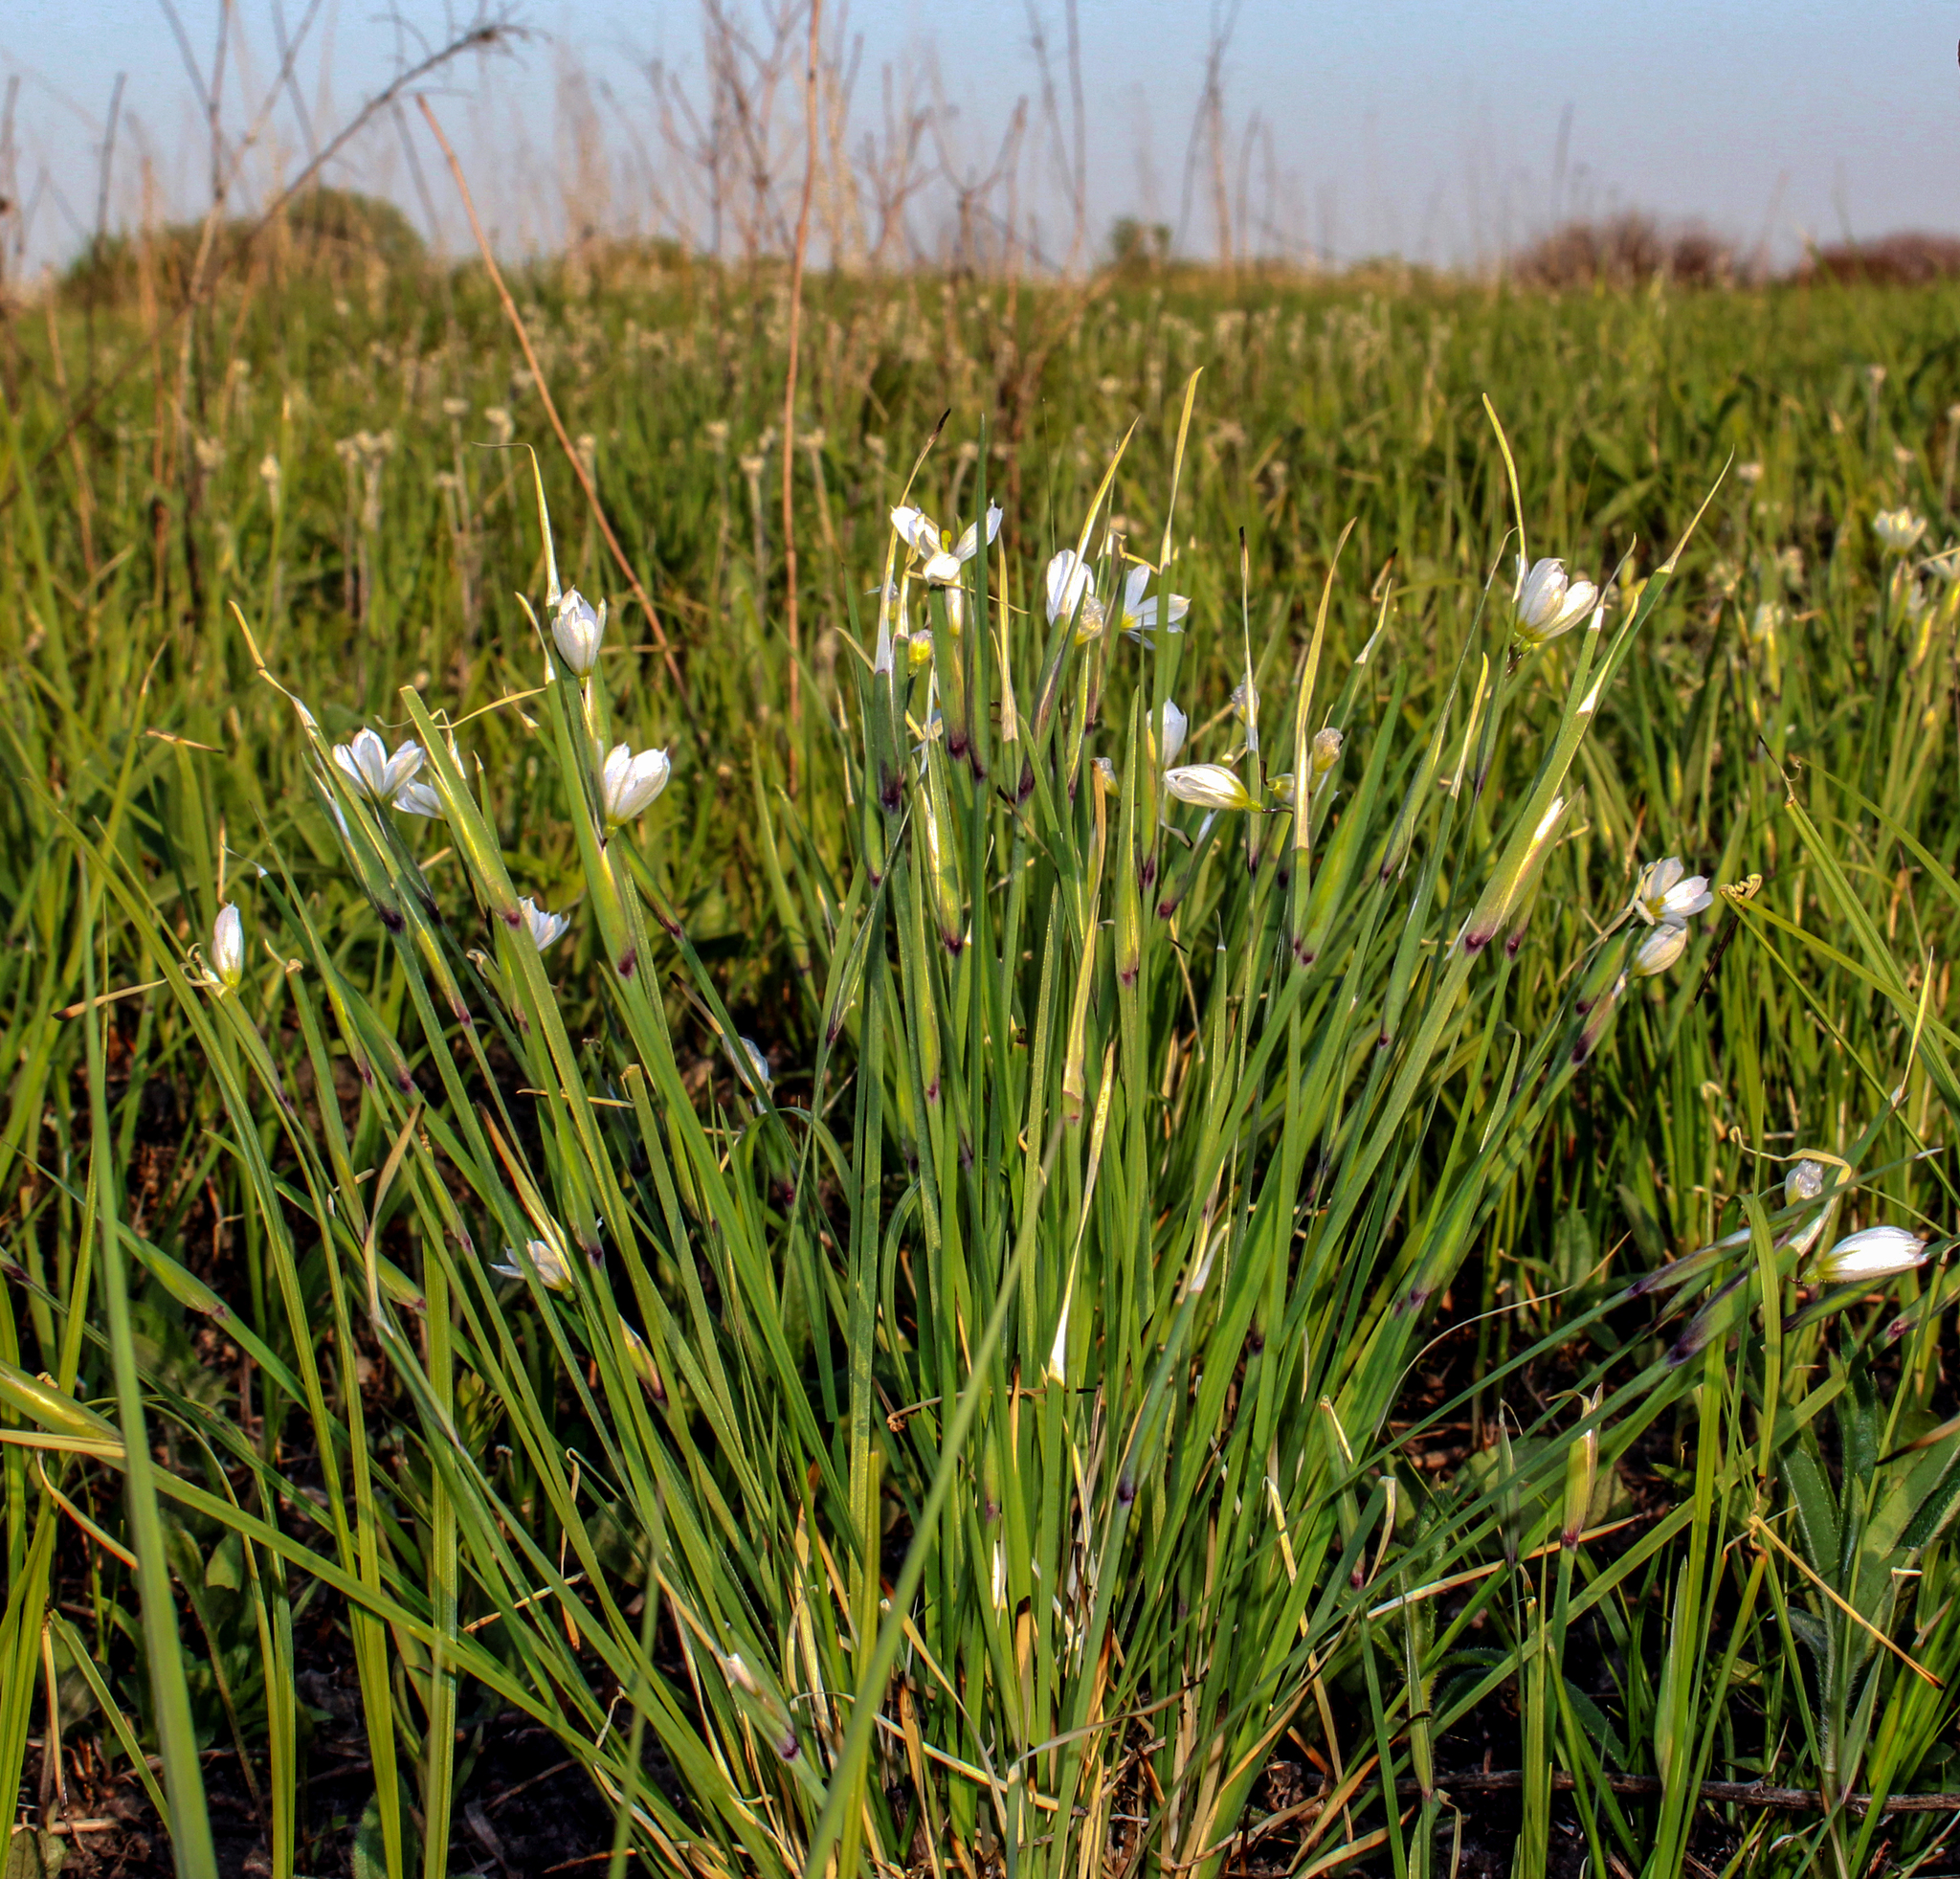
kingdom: Plantae
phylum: Tracheophyta
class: Liliopsida
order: Asparagales
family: Iridaceae
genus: Sisyrinchium
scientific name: Sisyrinchium campestre
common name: Prairie blue-eyed-grass
